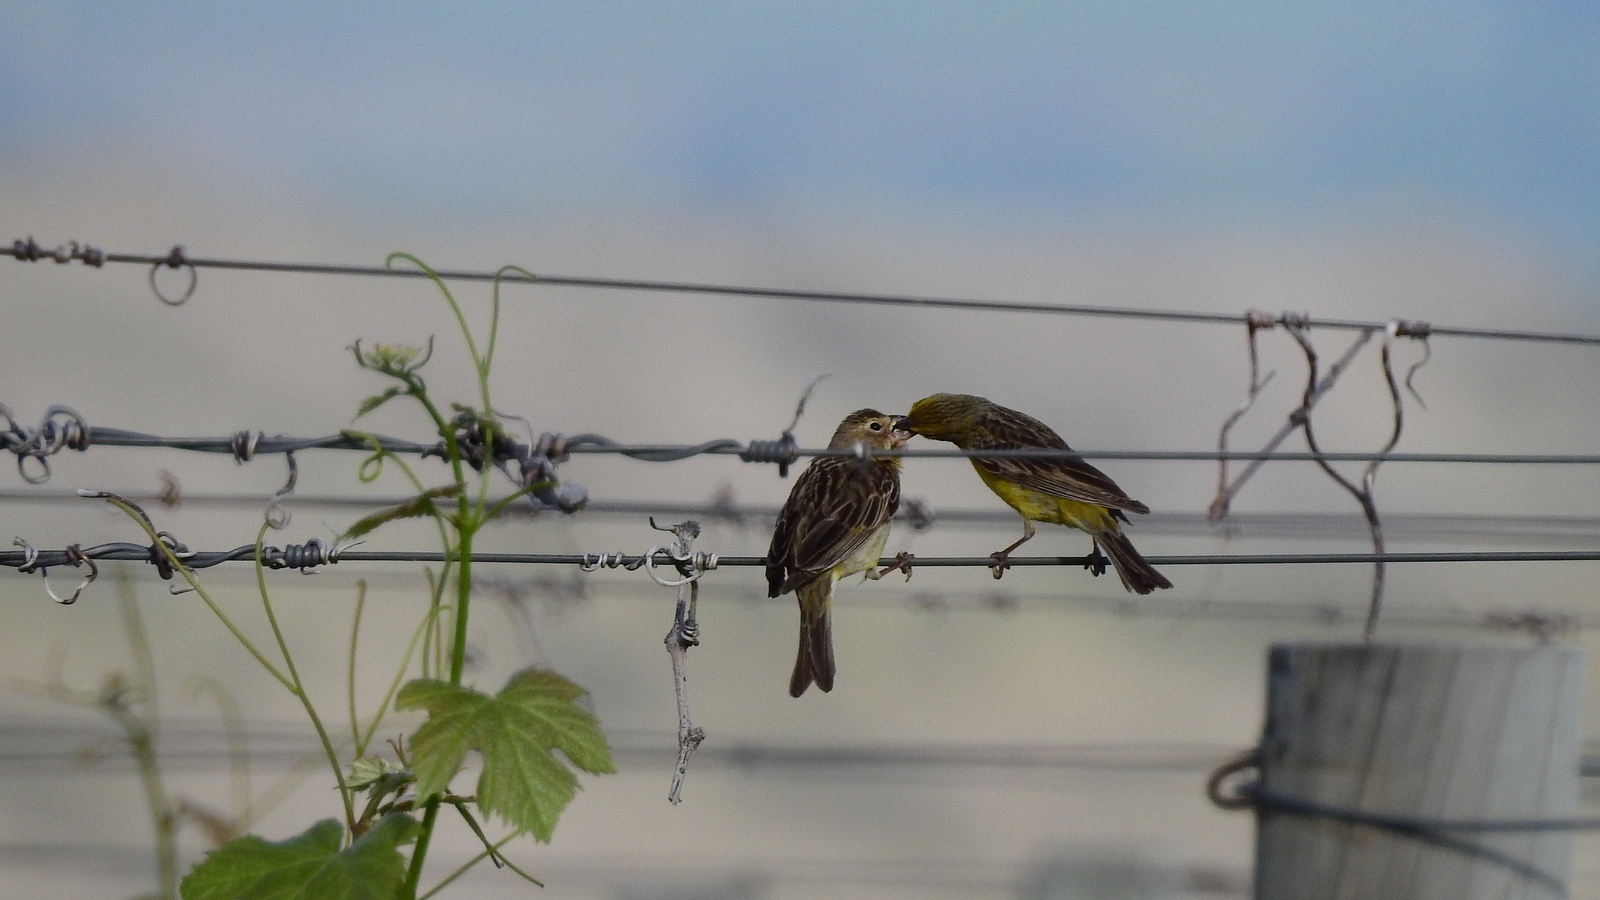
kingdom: Animalia
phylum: Chordata
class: Aves
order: Passeriformes
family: Thraupidae
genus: Sicalis
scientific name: Sicalis luteola
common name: Grassland yellow-finch
